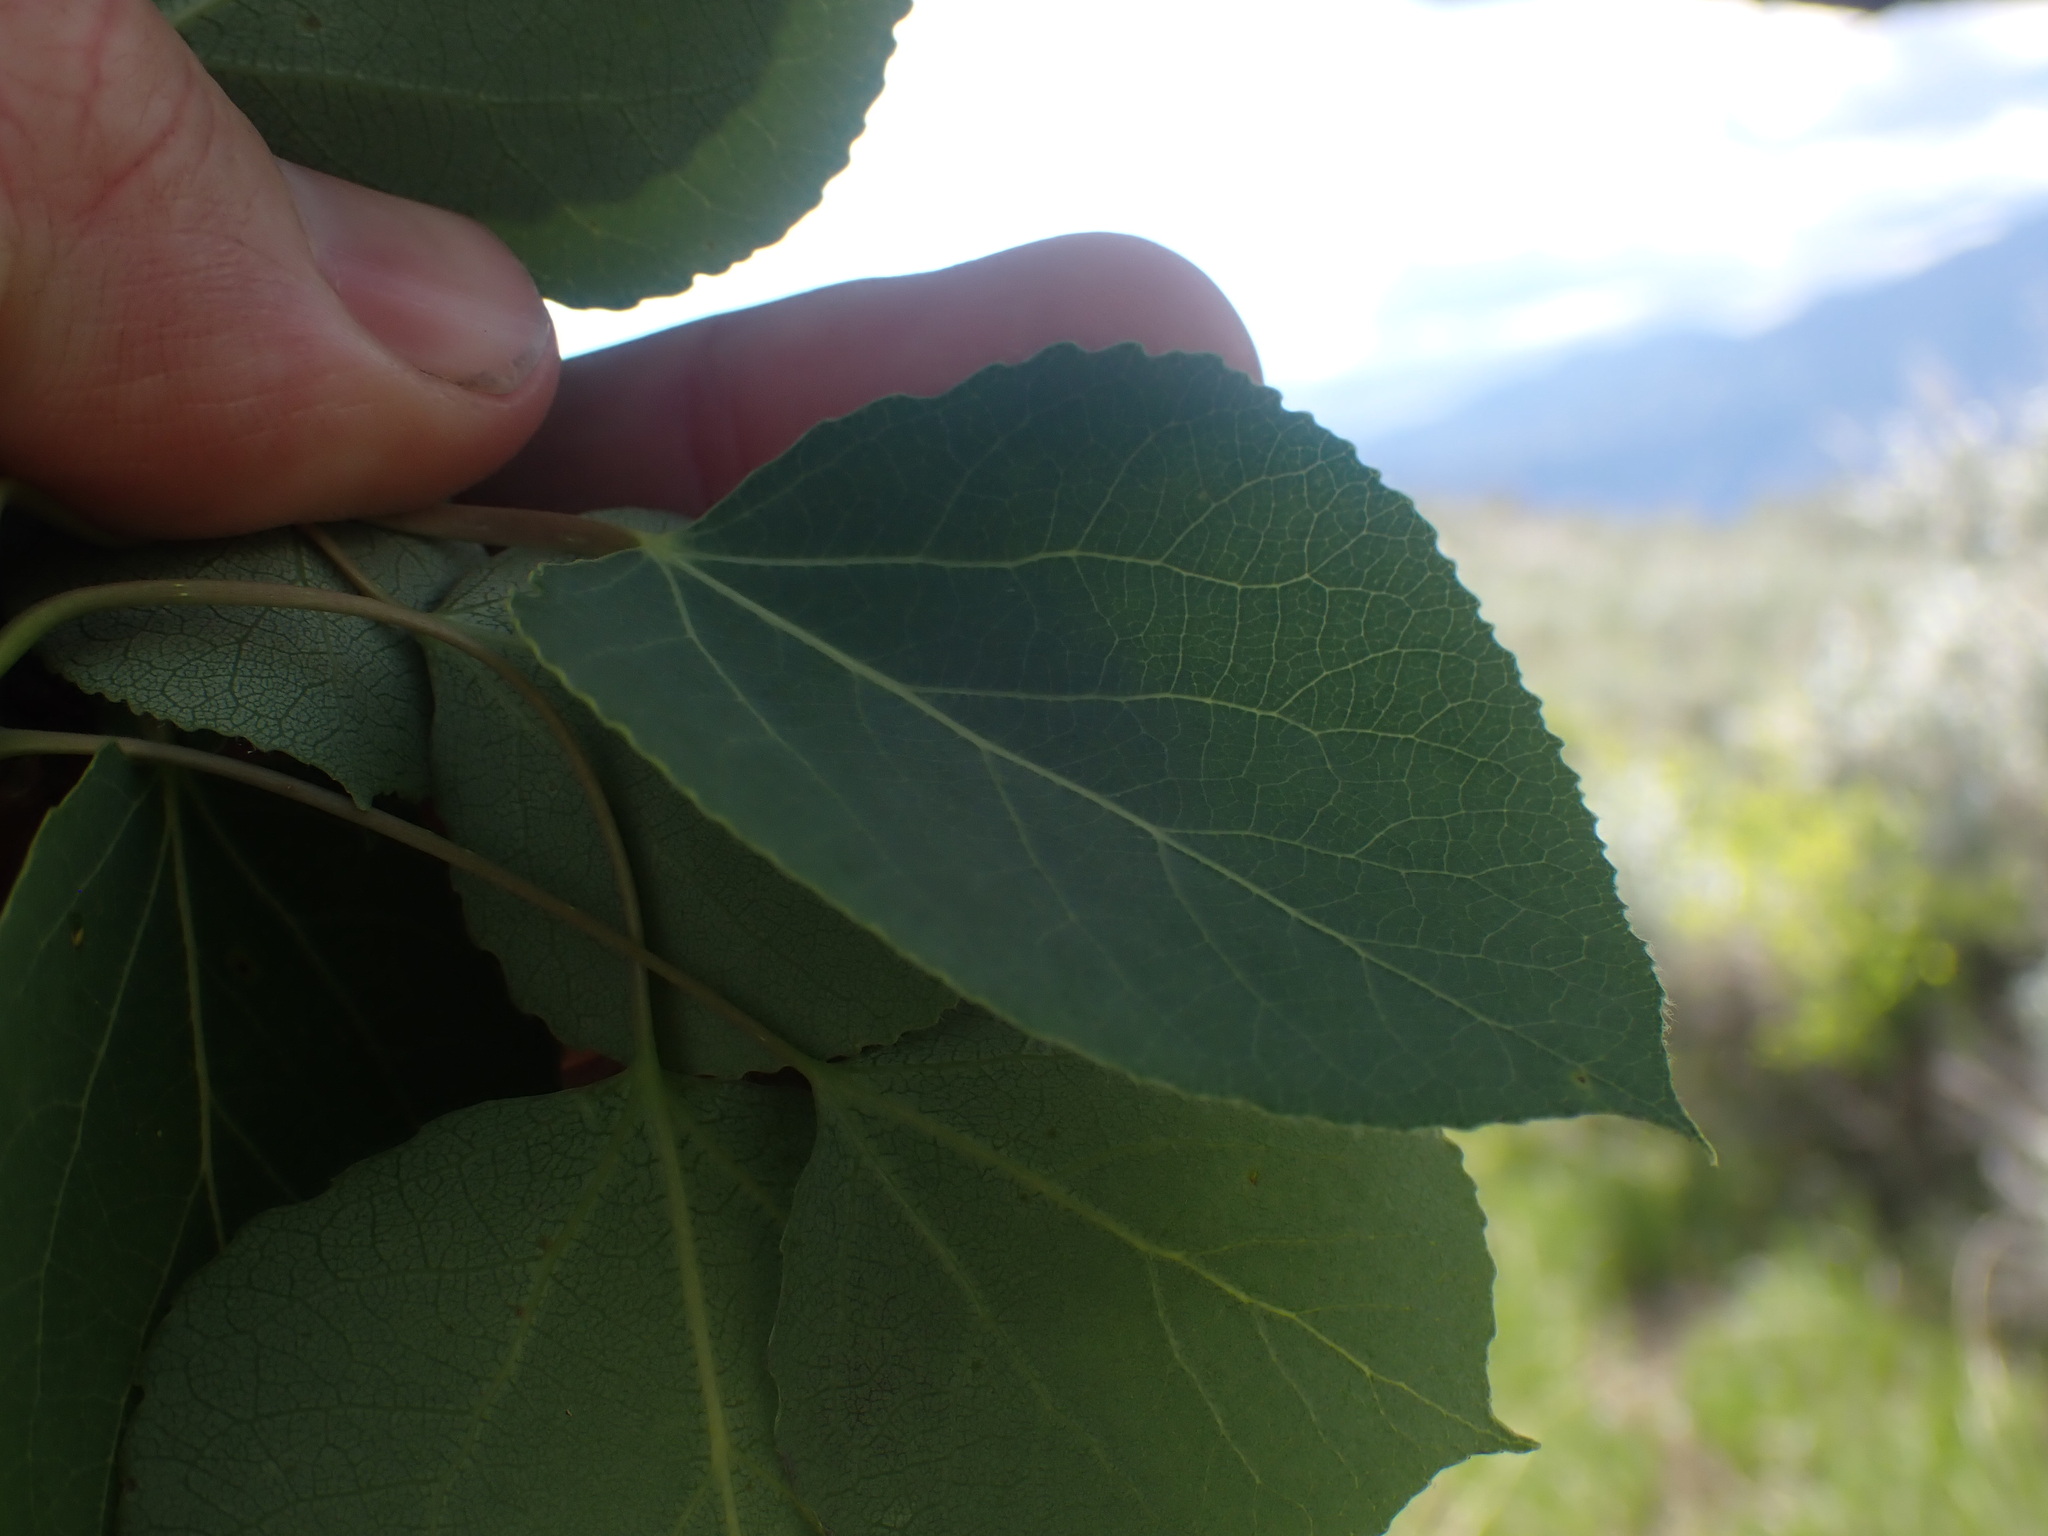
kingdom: Plantae
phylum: Tracheophyta
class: Magnoliopsida
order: Malpighiales
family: Salicaceae
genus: Populus
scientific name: Populus tremuloides
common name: Quaking aspen
